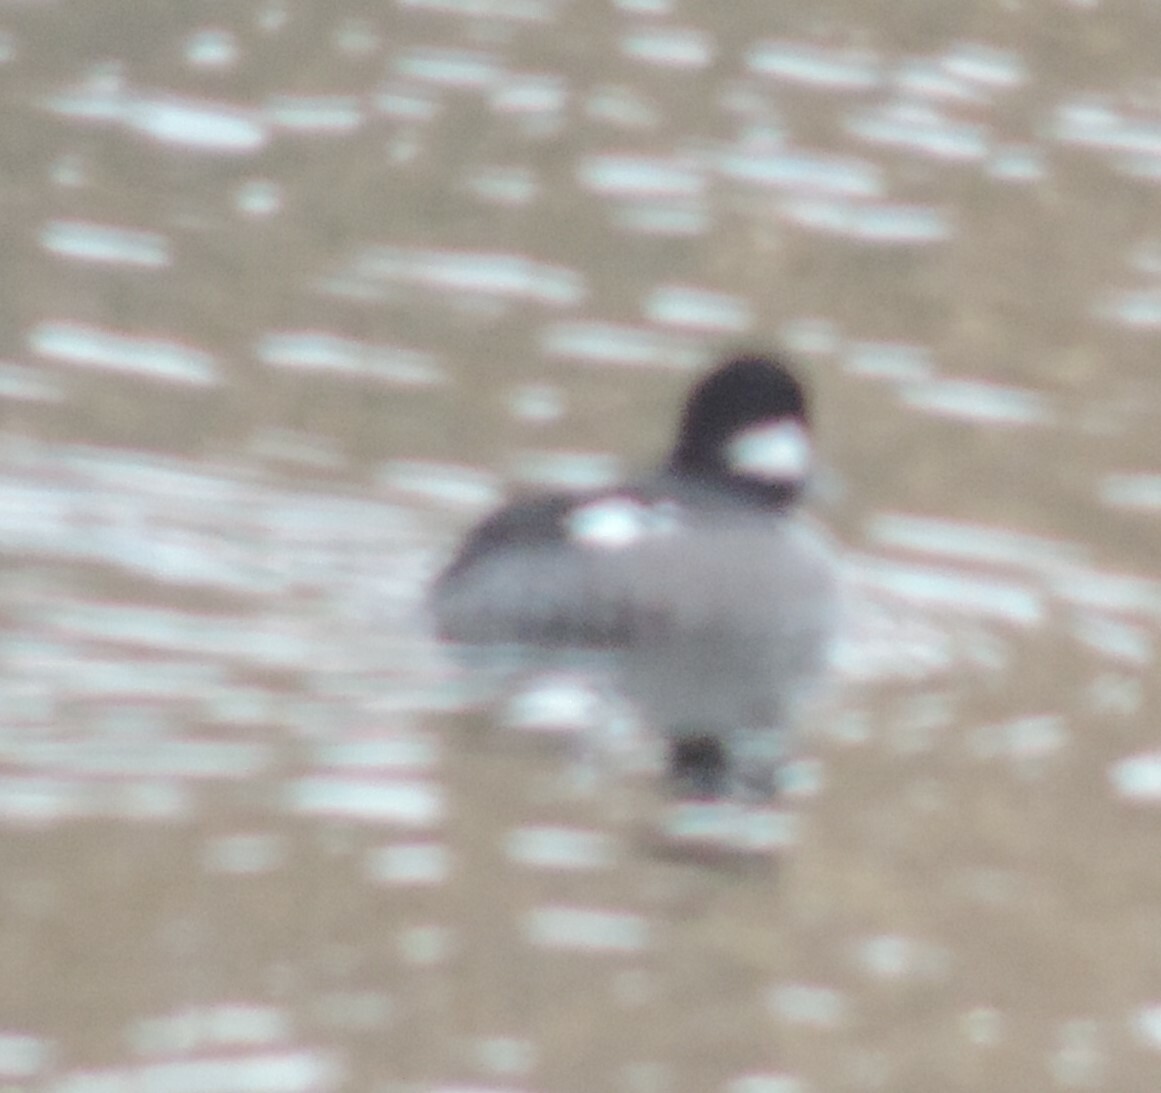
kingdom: Animalia
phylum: Chordata
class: Aves
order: Anseriformes
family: Anatidae
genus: Bucephala
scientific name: Bucephala albeola
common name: Bufflehead
